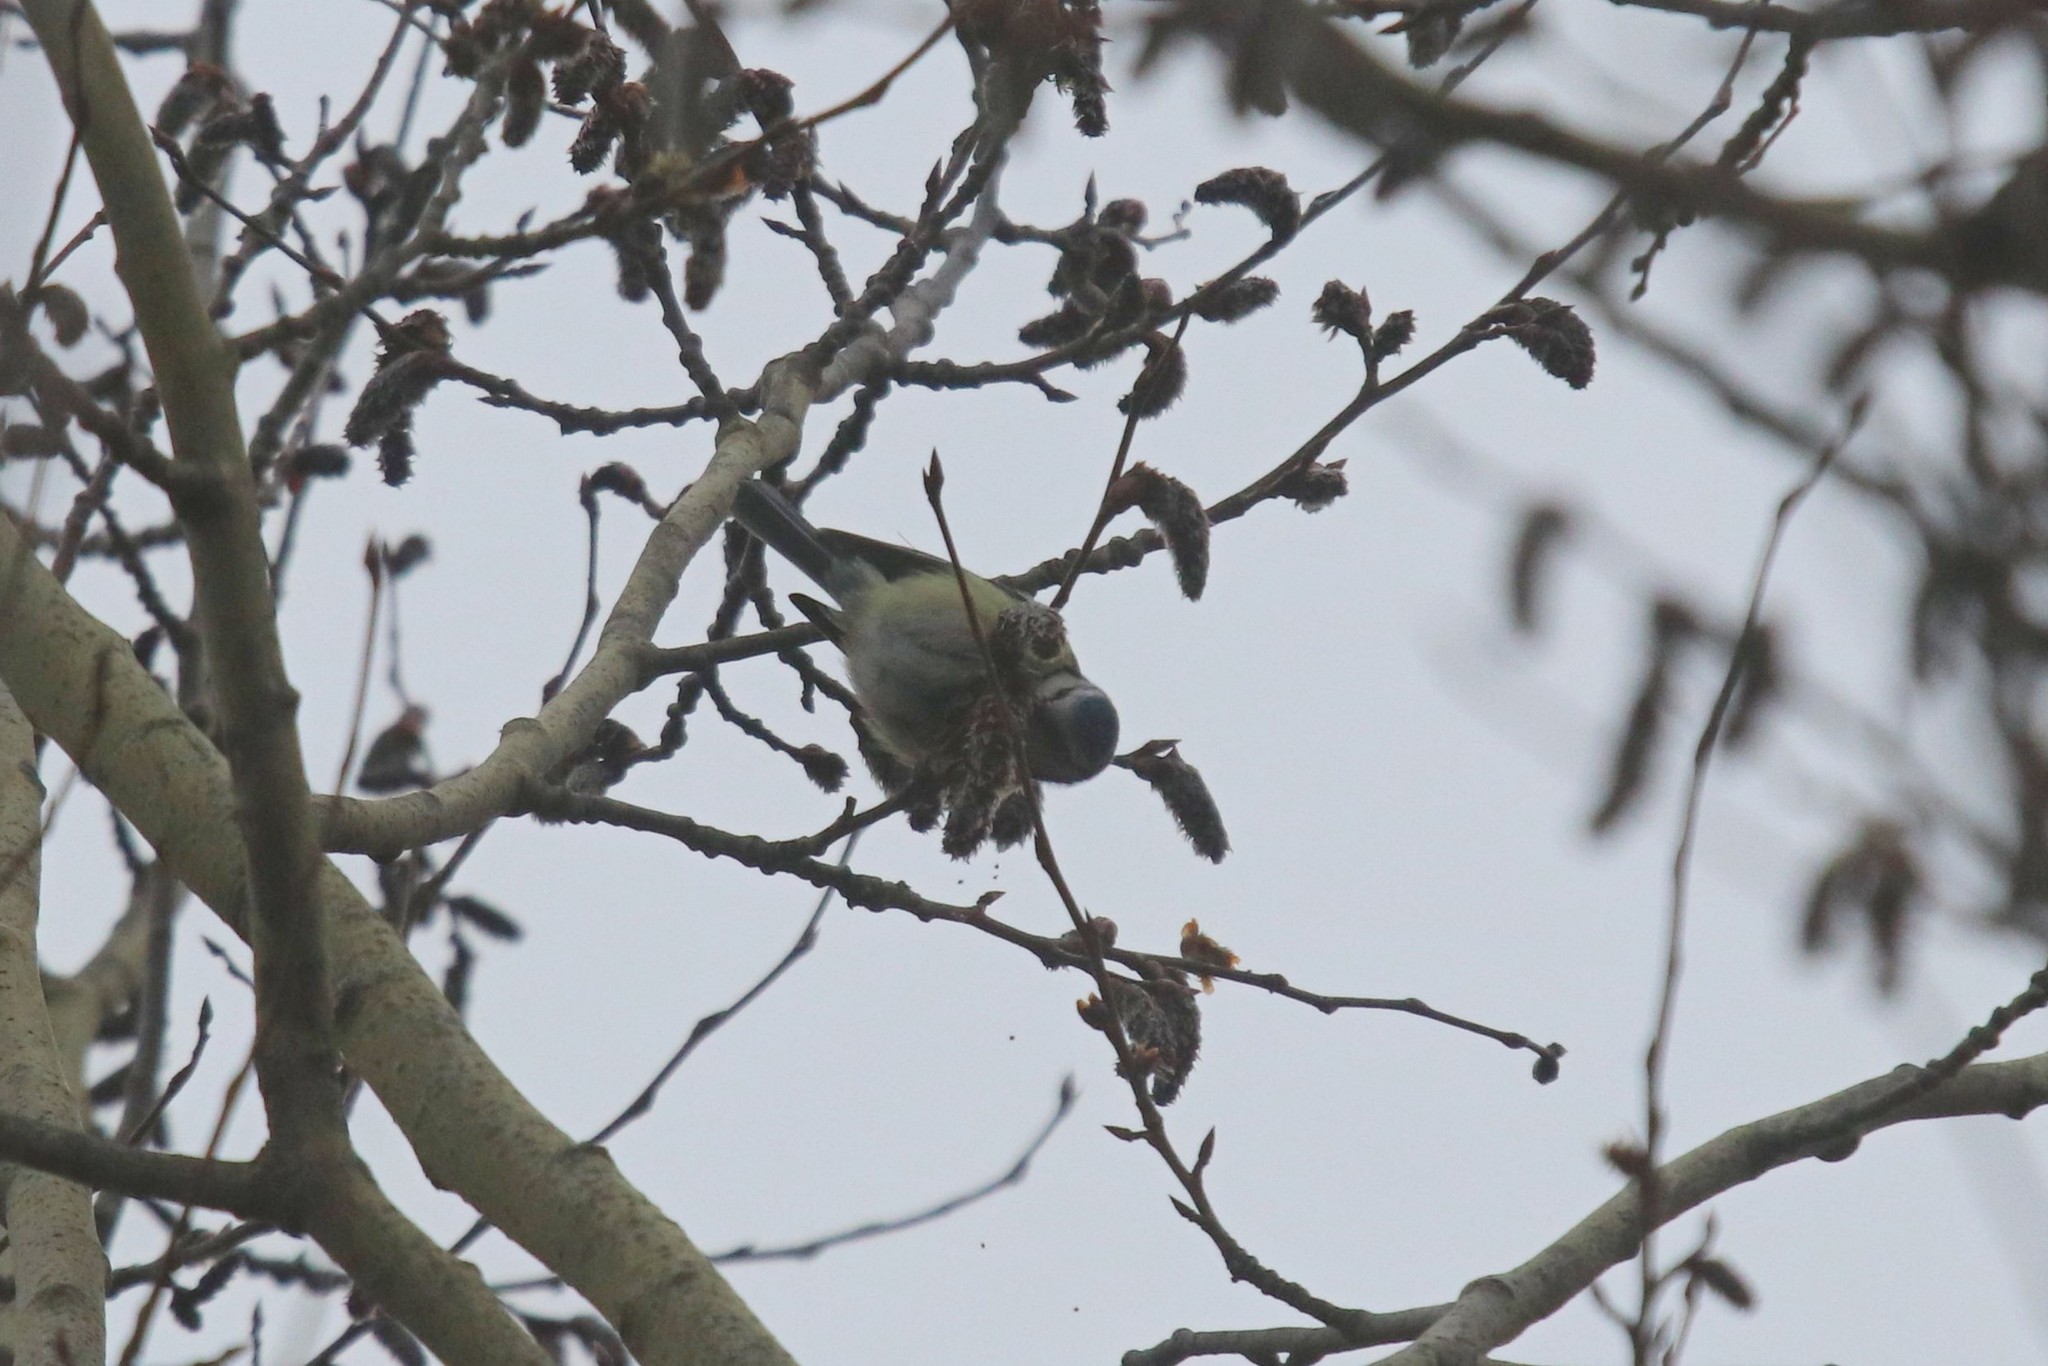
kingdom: Animalia
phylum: Chordata
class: Aves
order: Passeriformes
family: Paridae
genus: Cyanistes
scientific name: Cyanistes caeruleus
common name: Eurasian blue tit
